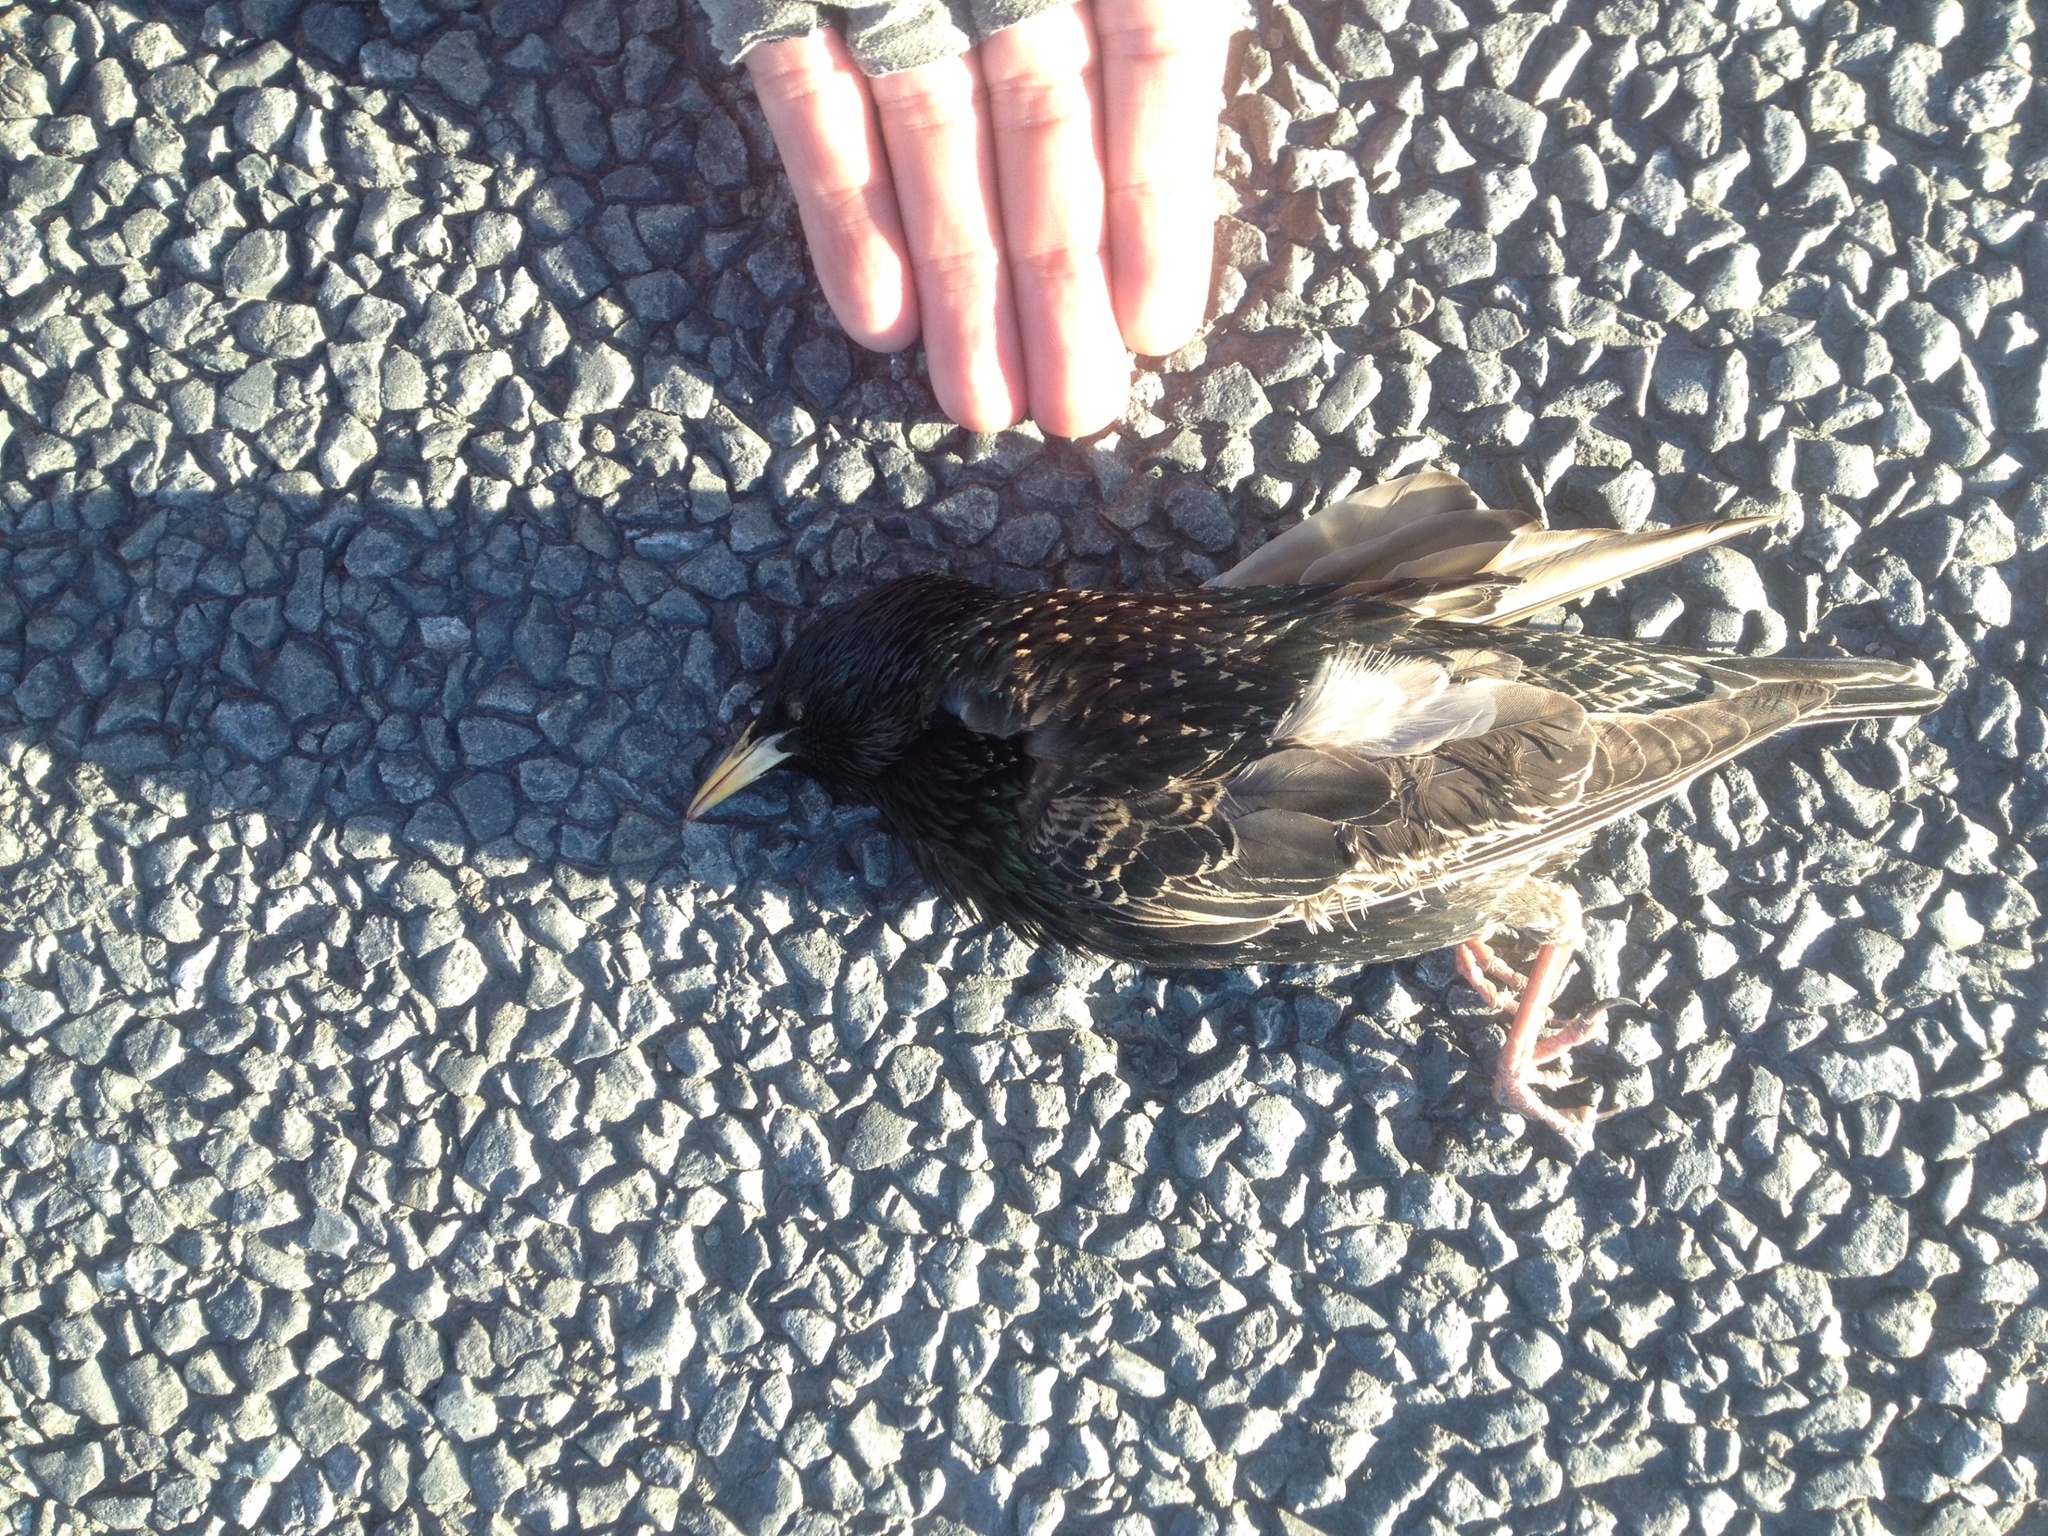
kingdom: Animalia
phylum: Chordata
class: Aves
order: Passeriformes
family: Sturnidae
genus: Sturnus
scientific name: Sturnus vulgaris
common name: Common starling
